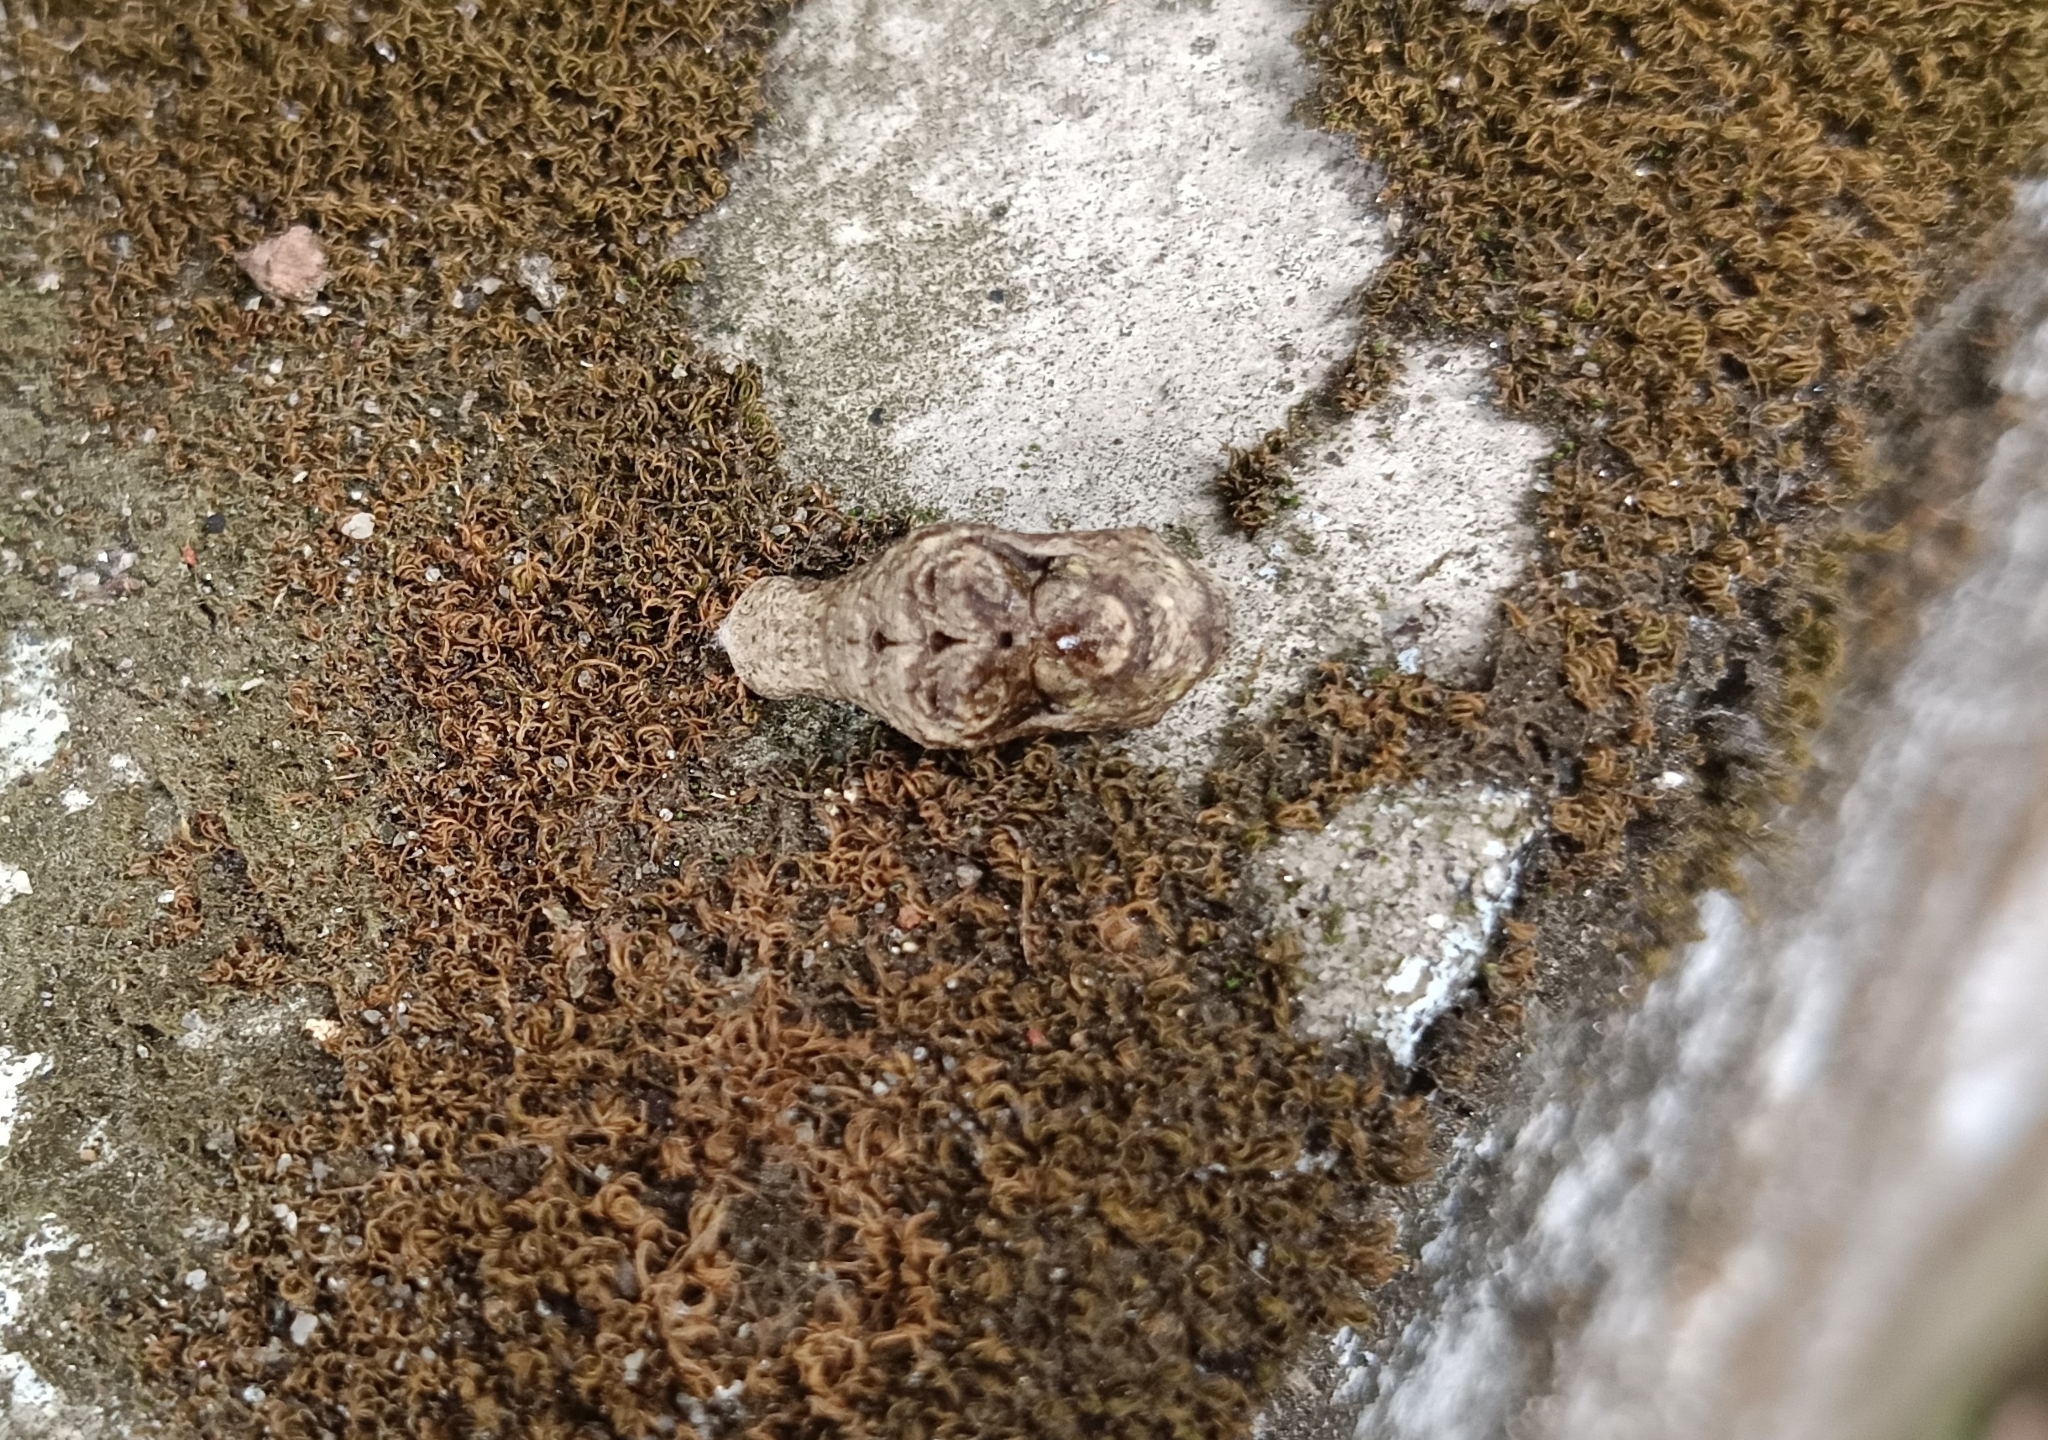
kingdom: Animalia
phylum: Arthropoda
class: Insecta
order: Lepidoptera
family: Lycaenidae
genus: Tajuria
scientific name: Tajuria cippus
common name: Peacock royal
